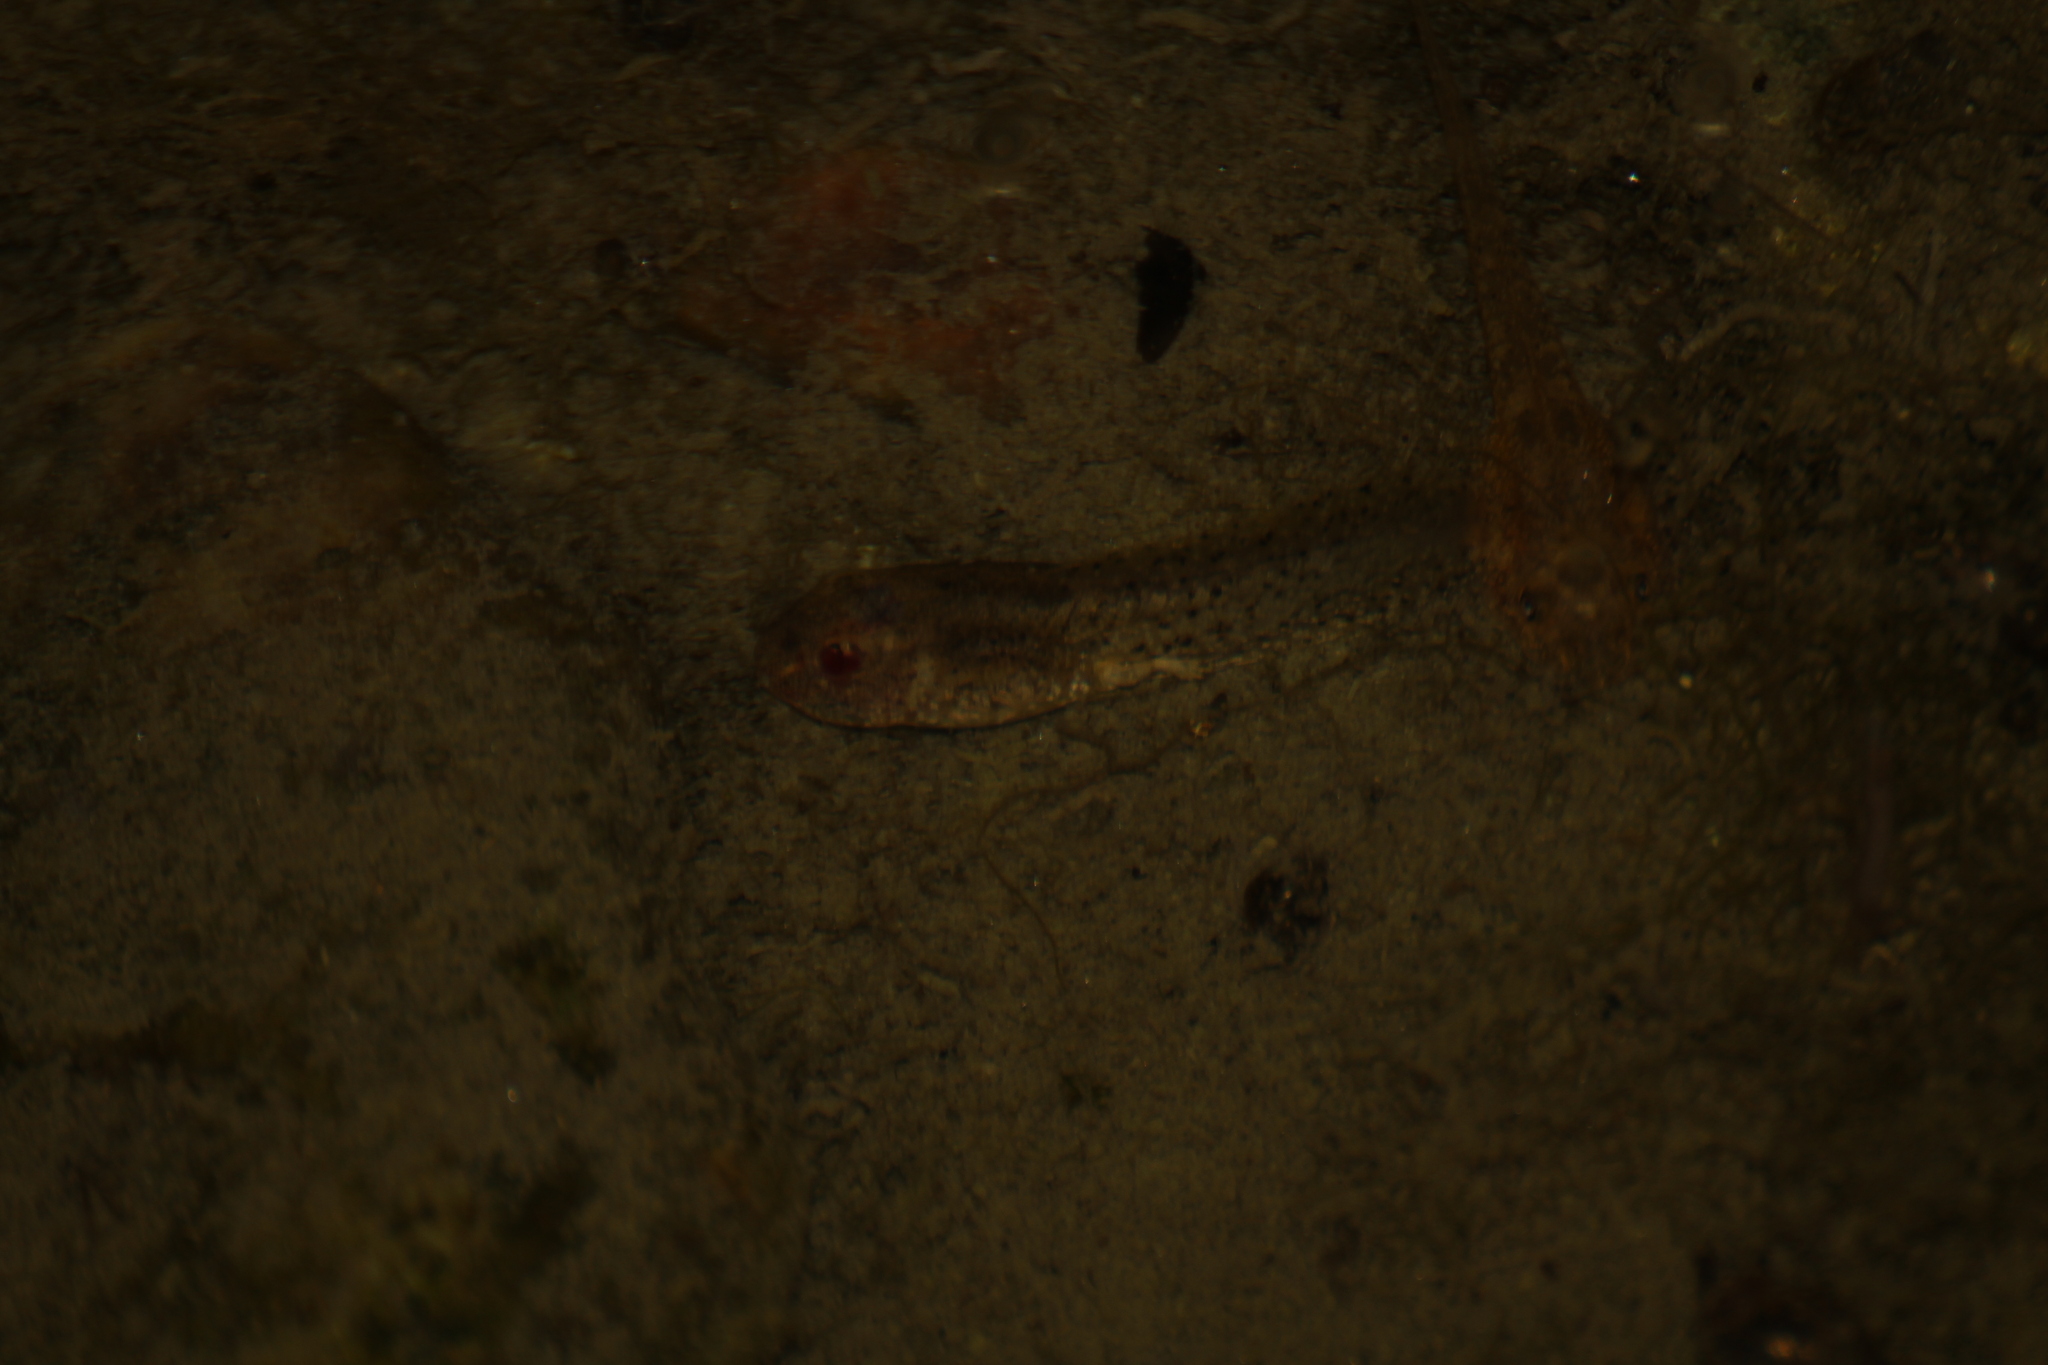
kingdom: Animalia
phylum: Chordata
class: Amphibia
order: Anura
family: Alytidae
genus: Alytes
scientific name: Alytes obstetricans
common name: Midwife toad
